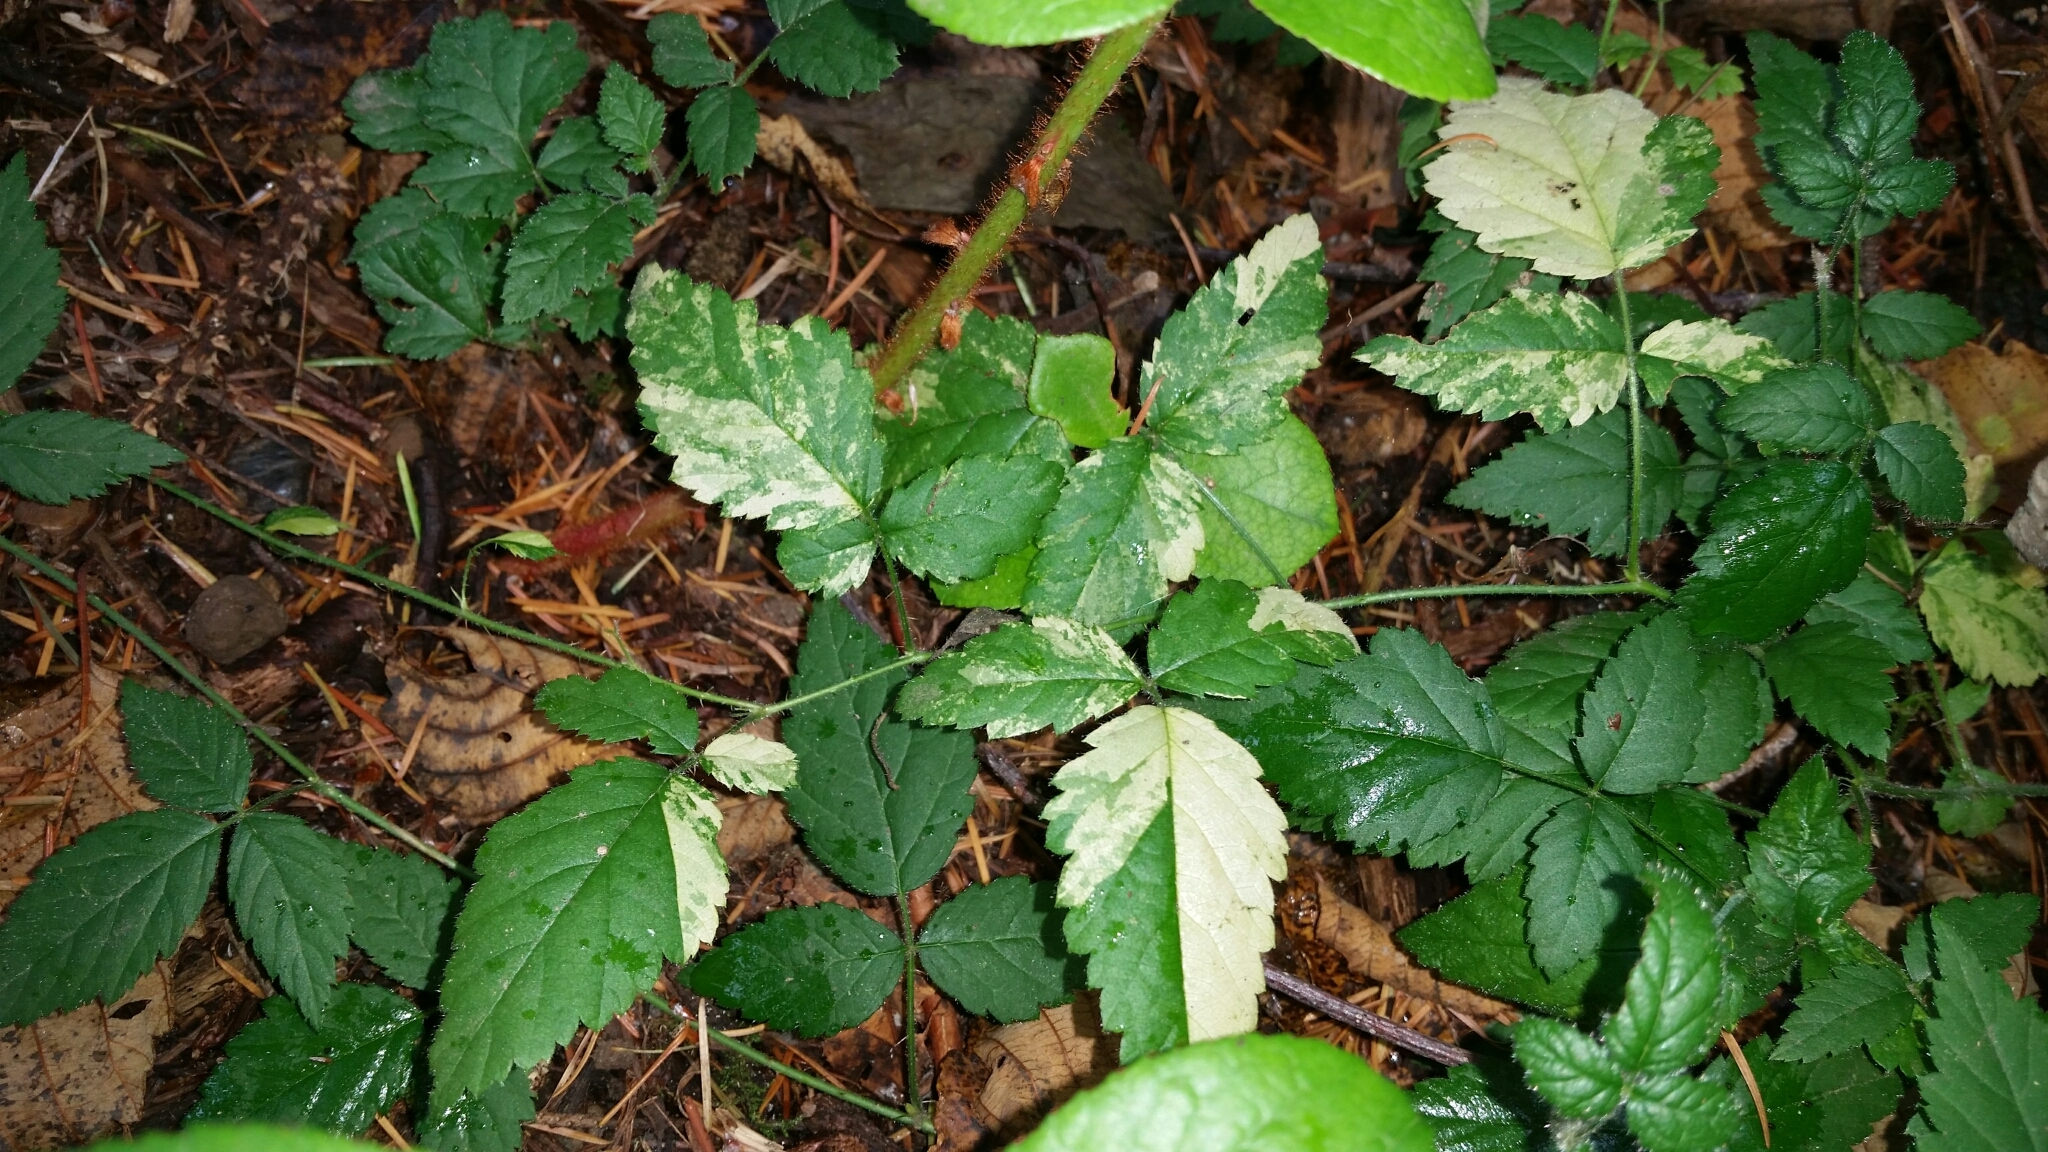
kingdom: Plantae
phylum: Tracheophyta
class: Magnoliopsida
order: Rosales
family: Rosaceae
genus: Rubus
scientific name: Rubus ursinus
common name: Pacific blackberry
